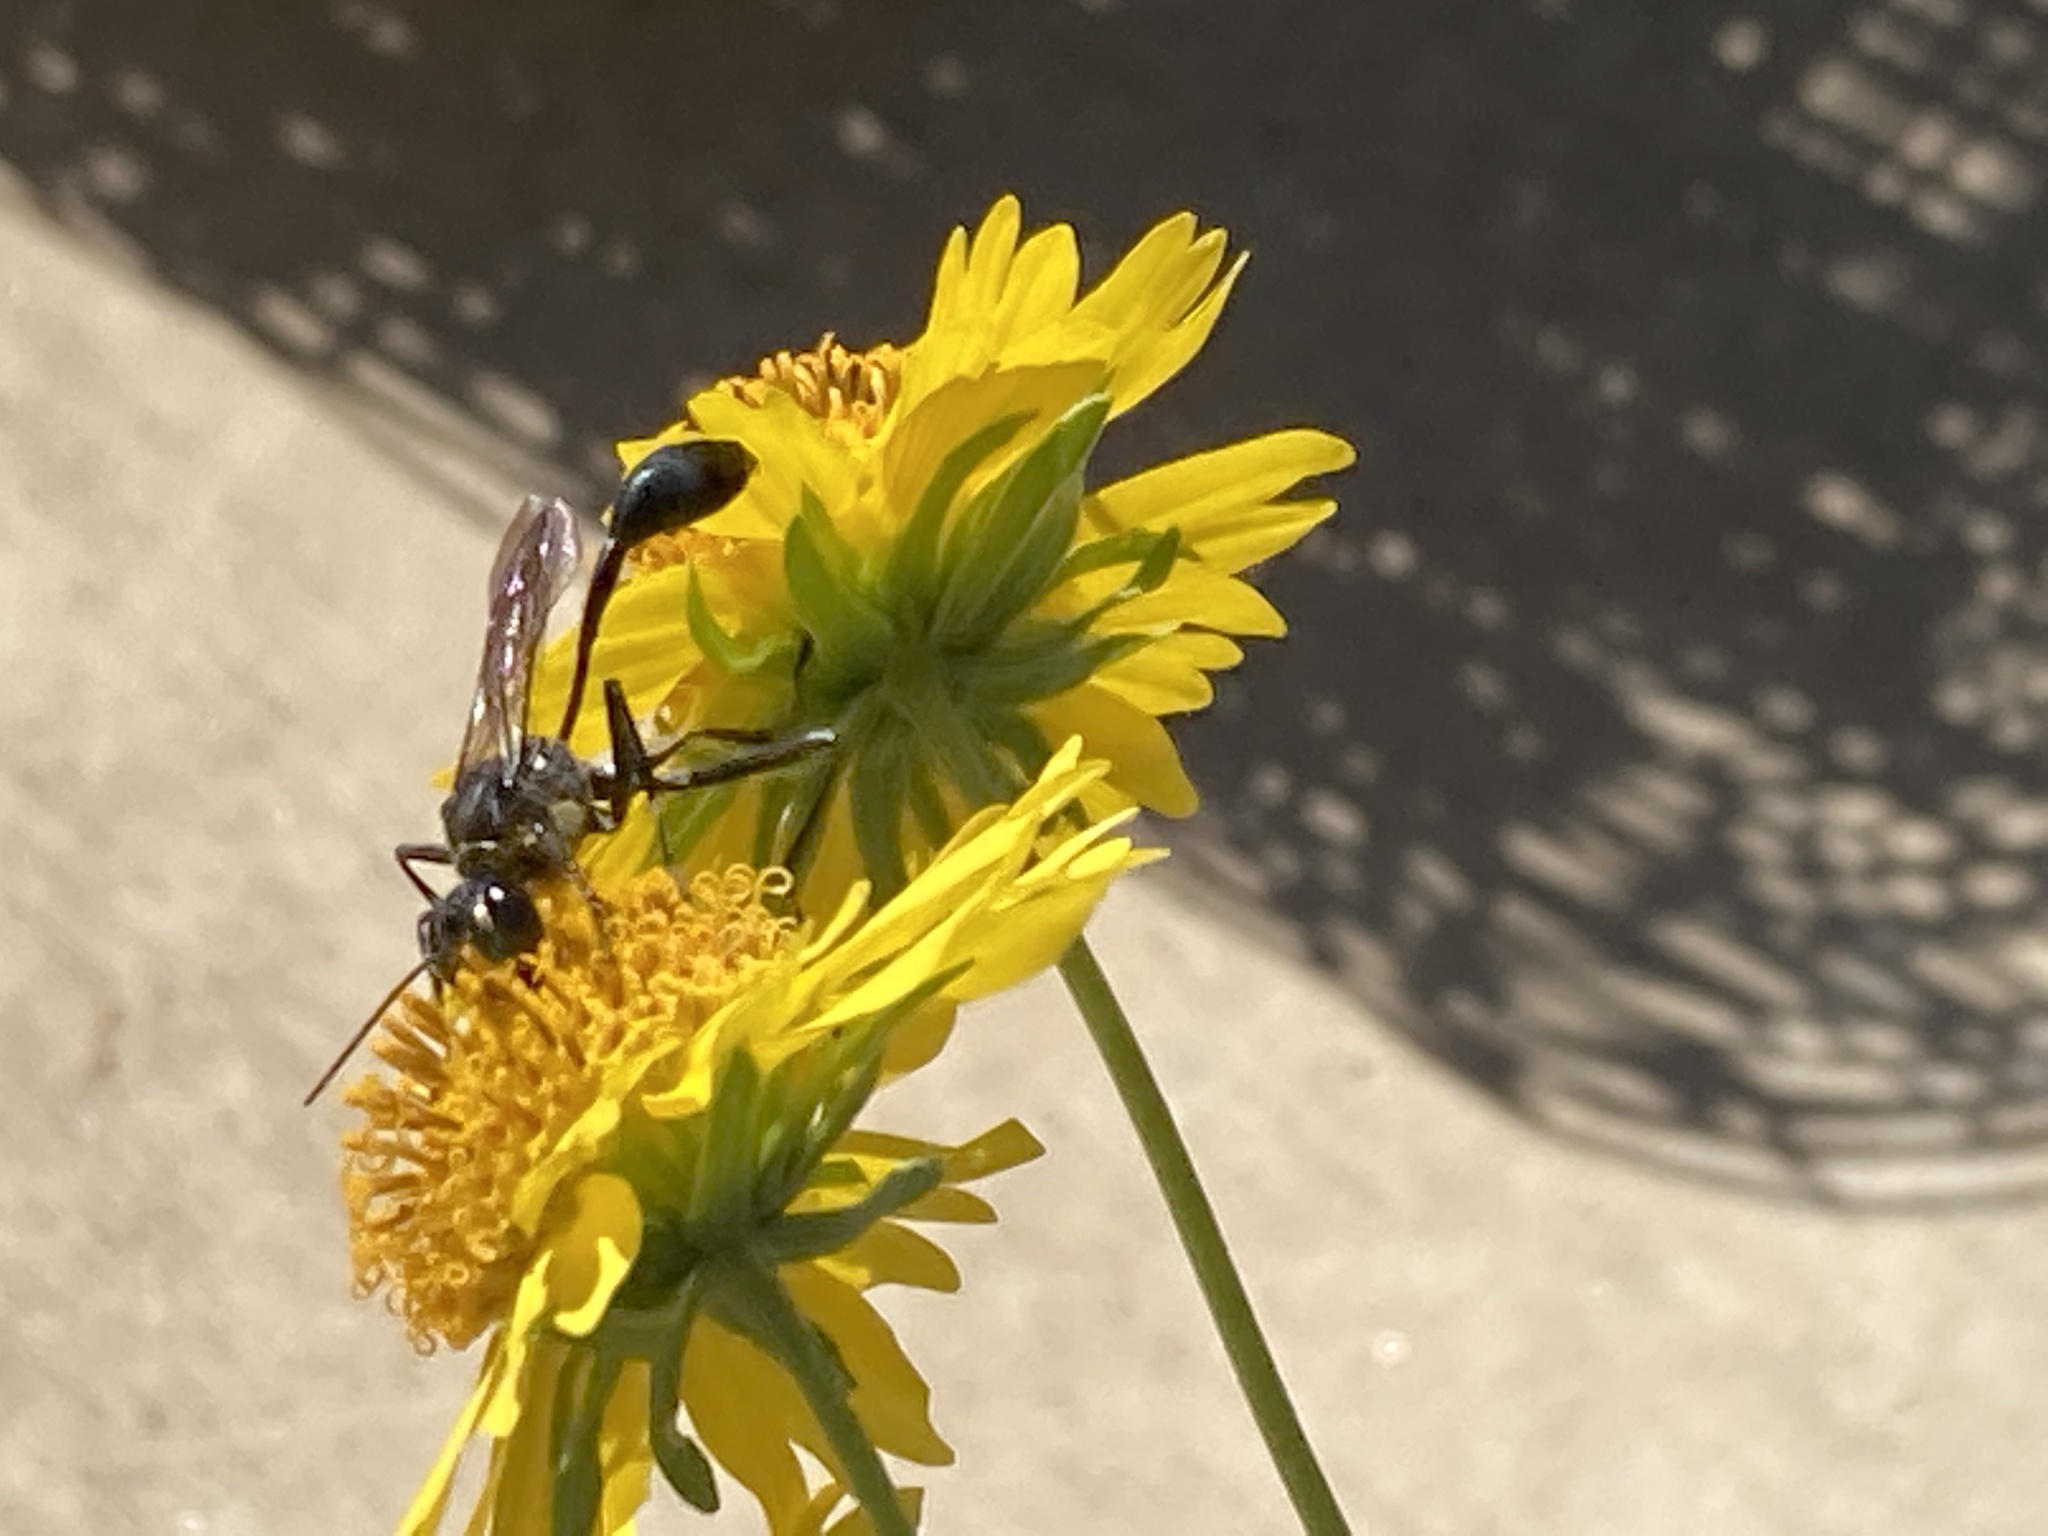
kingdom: Animalia
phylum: Arthropoda
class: Insecta
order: Hymenoptera
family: Sphecidae
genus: Eremnophila
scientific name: Eremnophila aureonotata
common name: Gold-marked thread-waisted wasp
